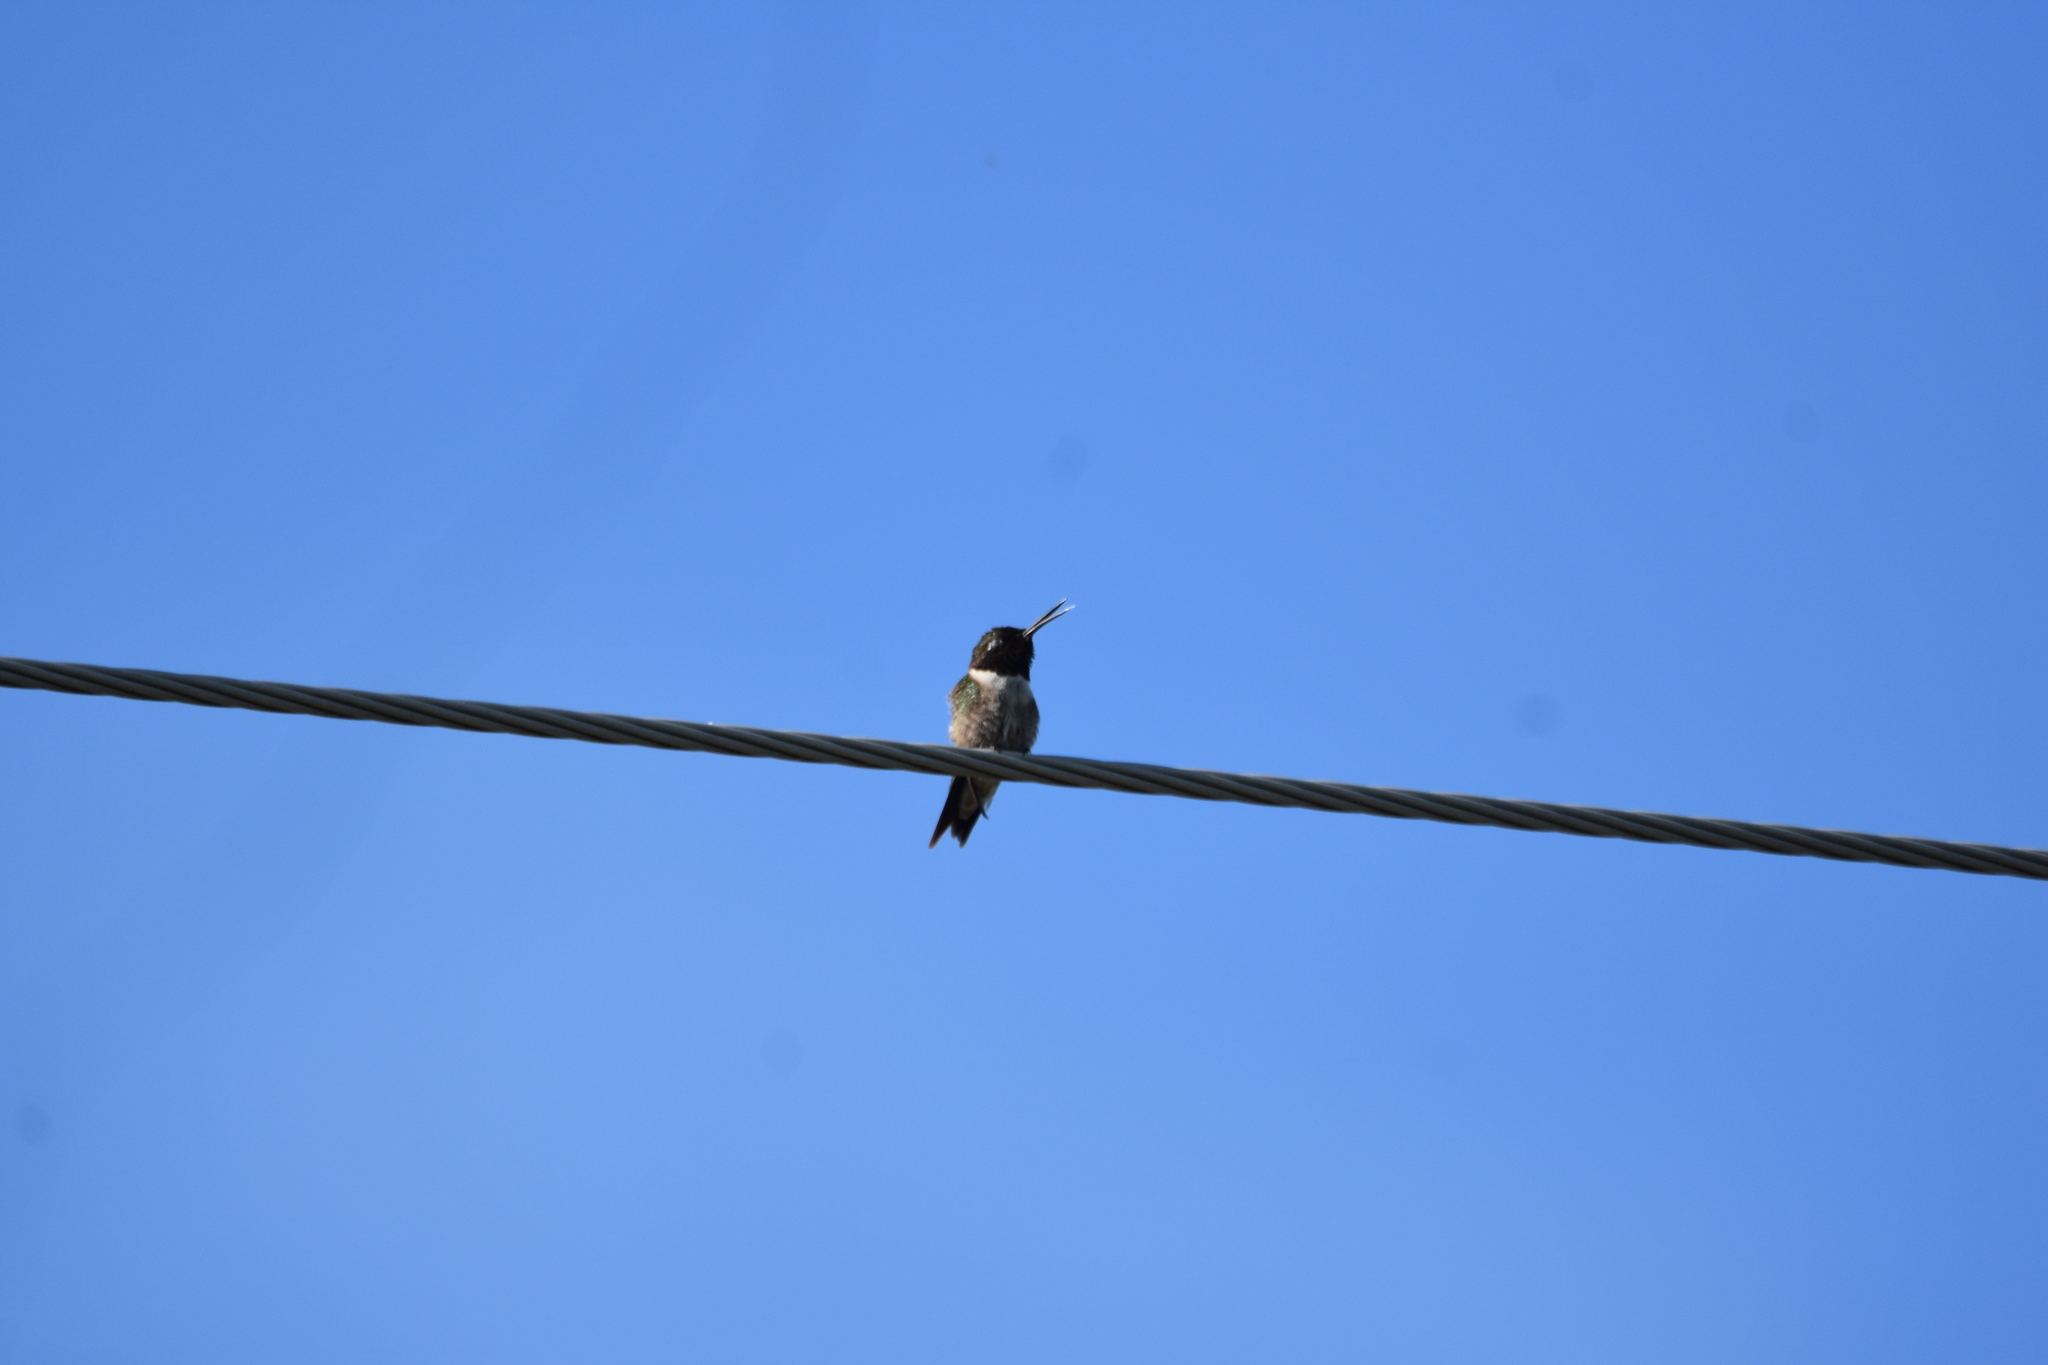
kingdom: Animalia
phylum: Chordata
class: Aves
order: Apodiformes
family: Trochilidae
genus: Archilochus
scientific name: Archilochus colubris
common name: Ruby-throated hummingbird
